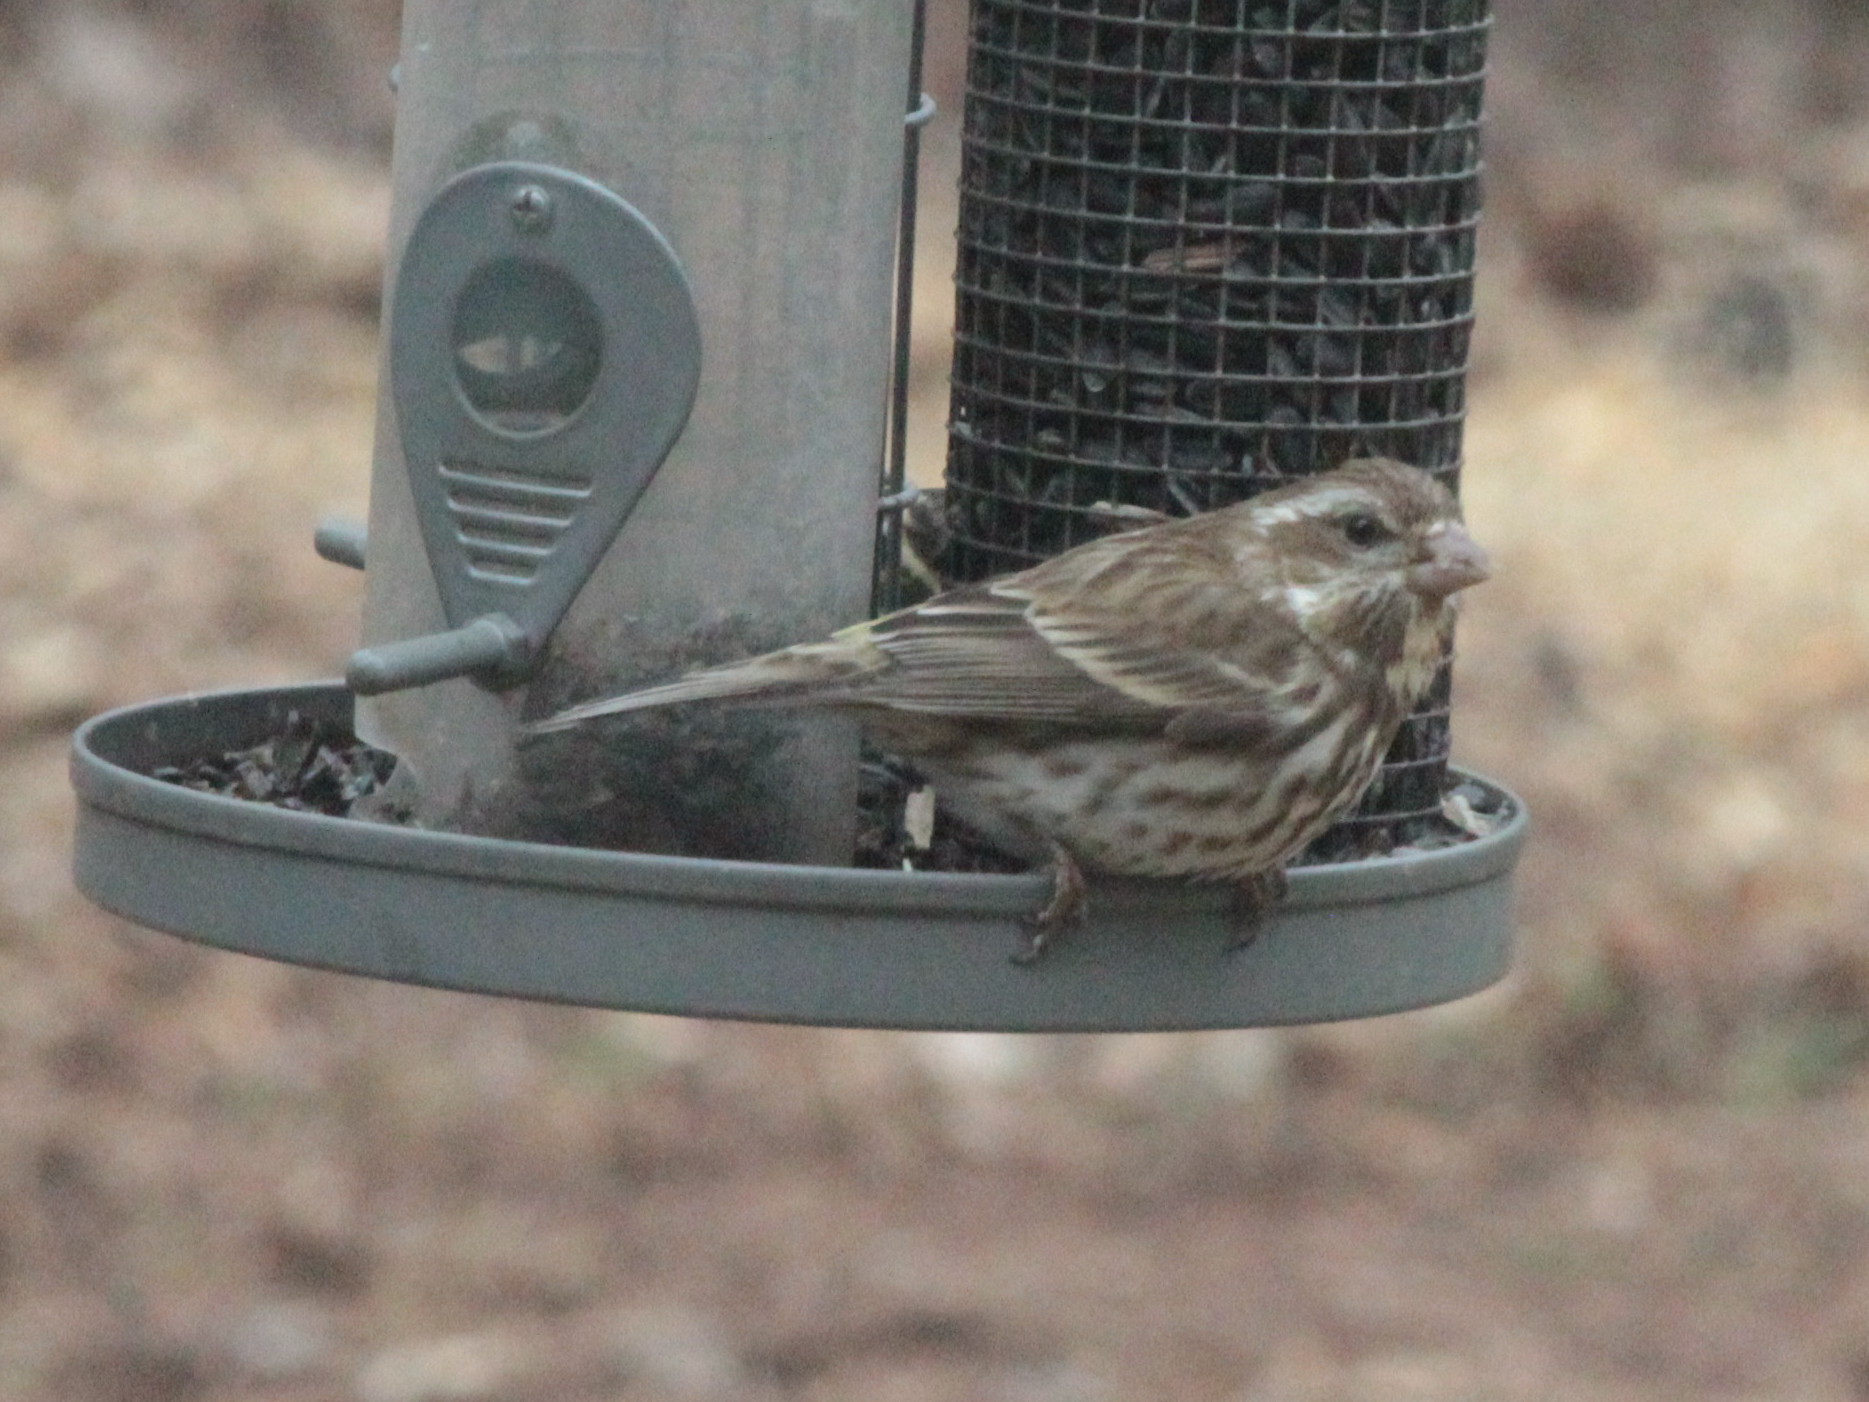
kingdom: Animalia
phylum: Chordata
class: Aves
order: Passeriformes
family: Fringillidae
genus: Haemorhous
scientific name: Haemorhous purpureus
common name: Purple finch
